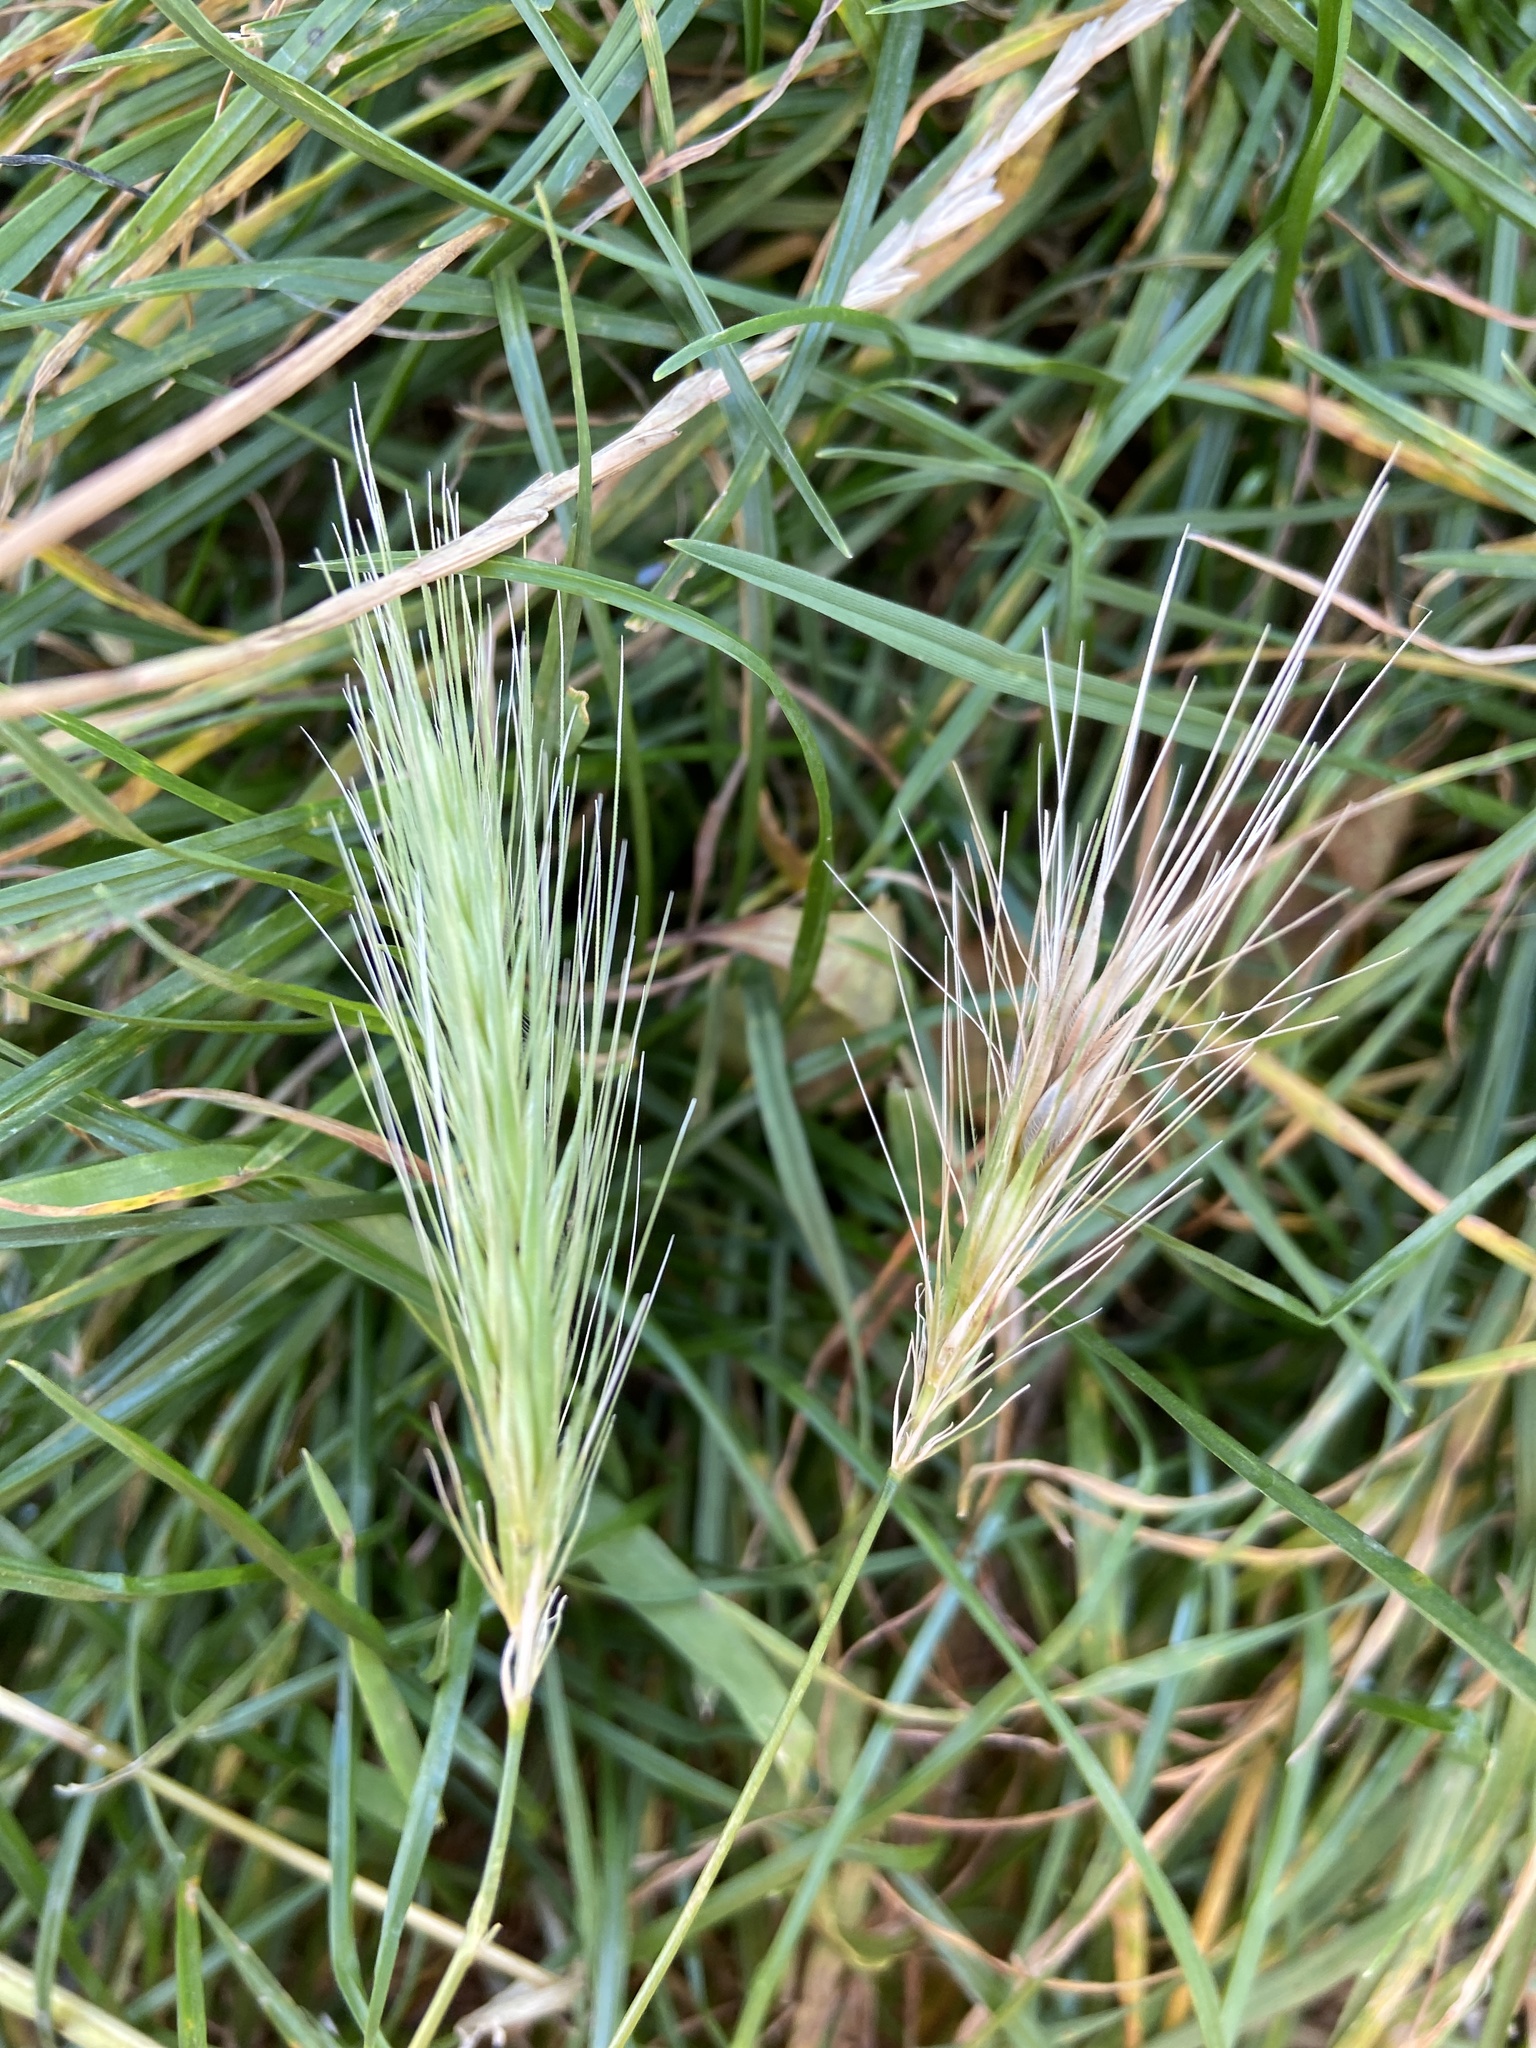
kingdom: Plantae
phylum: Tracheophyta
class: Liliopsida
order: Poales
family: Poaceae
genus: Hordeum
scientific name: Hordeum murinum
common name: Wall barley
